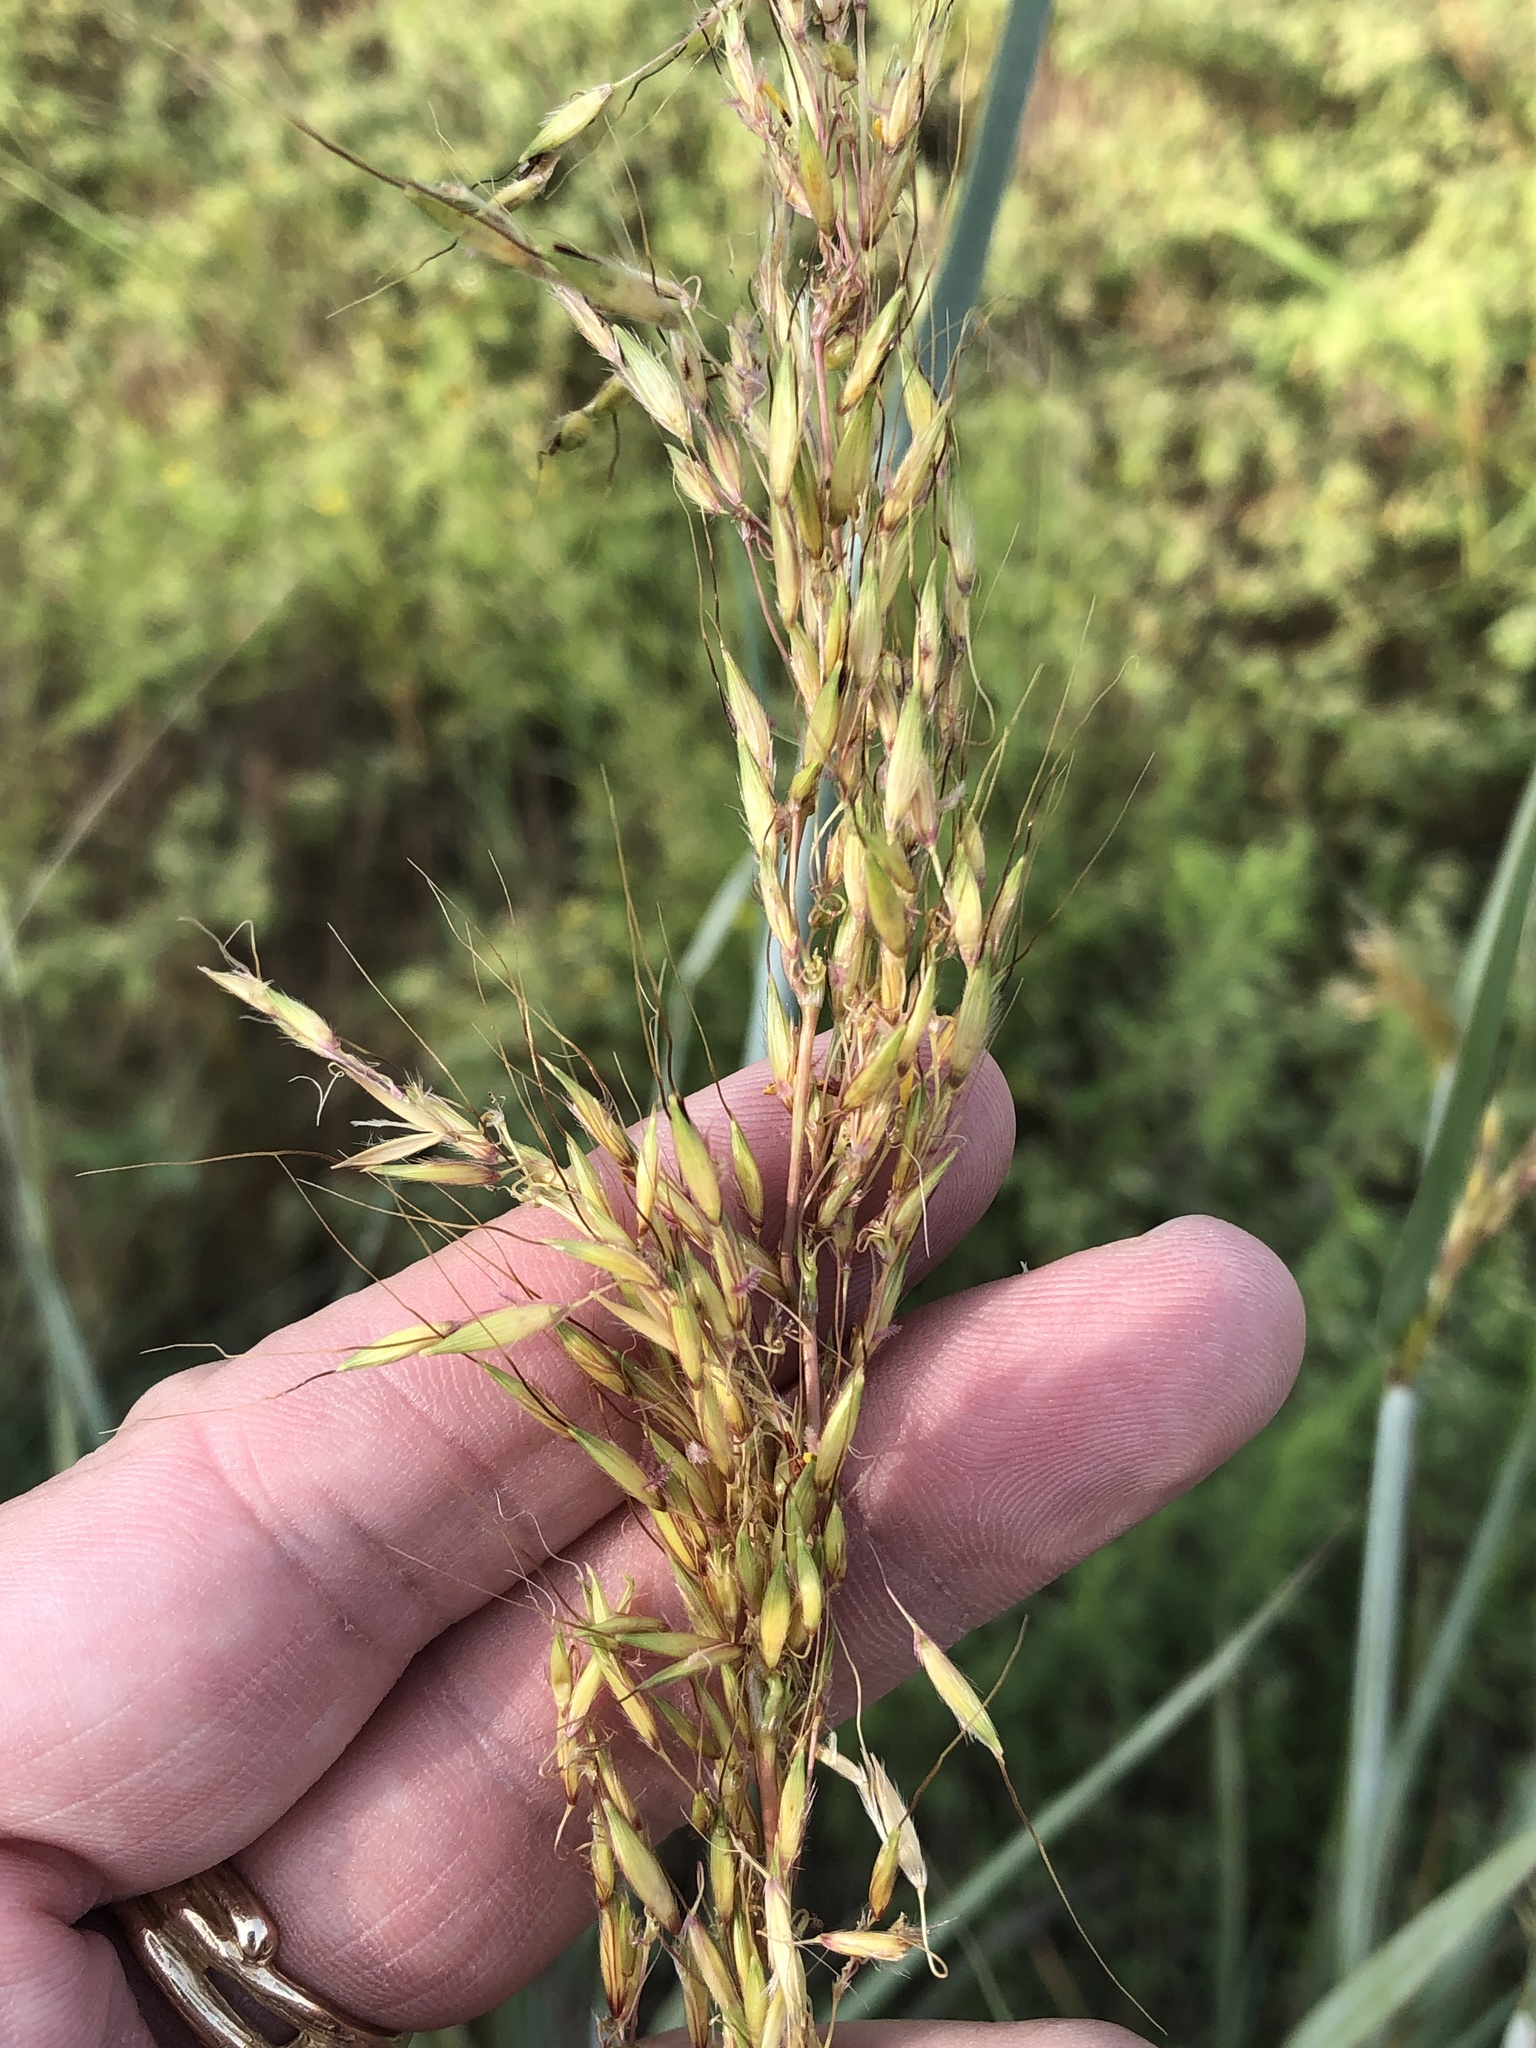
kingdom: Plantae
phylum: Tracheophyta
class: Liliopsida
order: Poales
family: Poaceae
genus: Sorghastrum
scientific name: Sorghastrum nutans
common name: Indian grass
